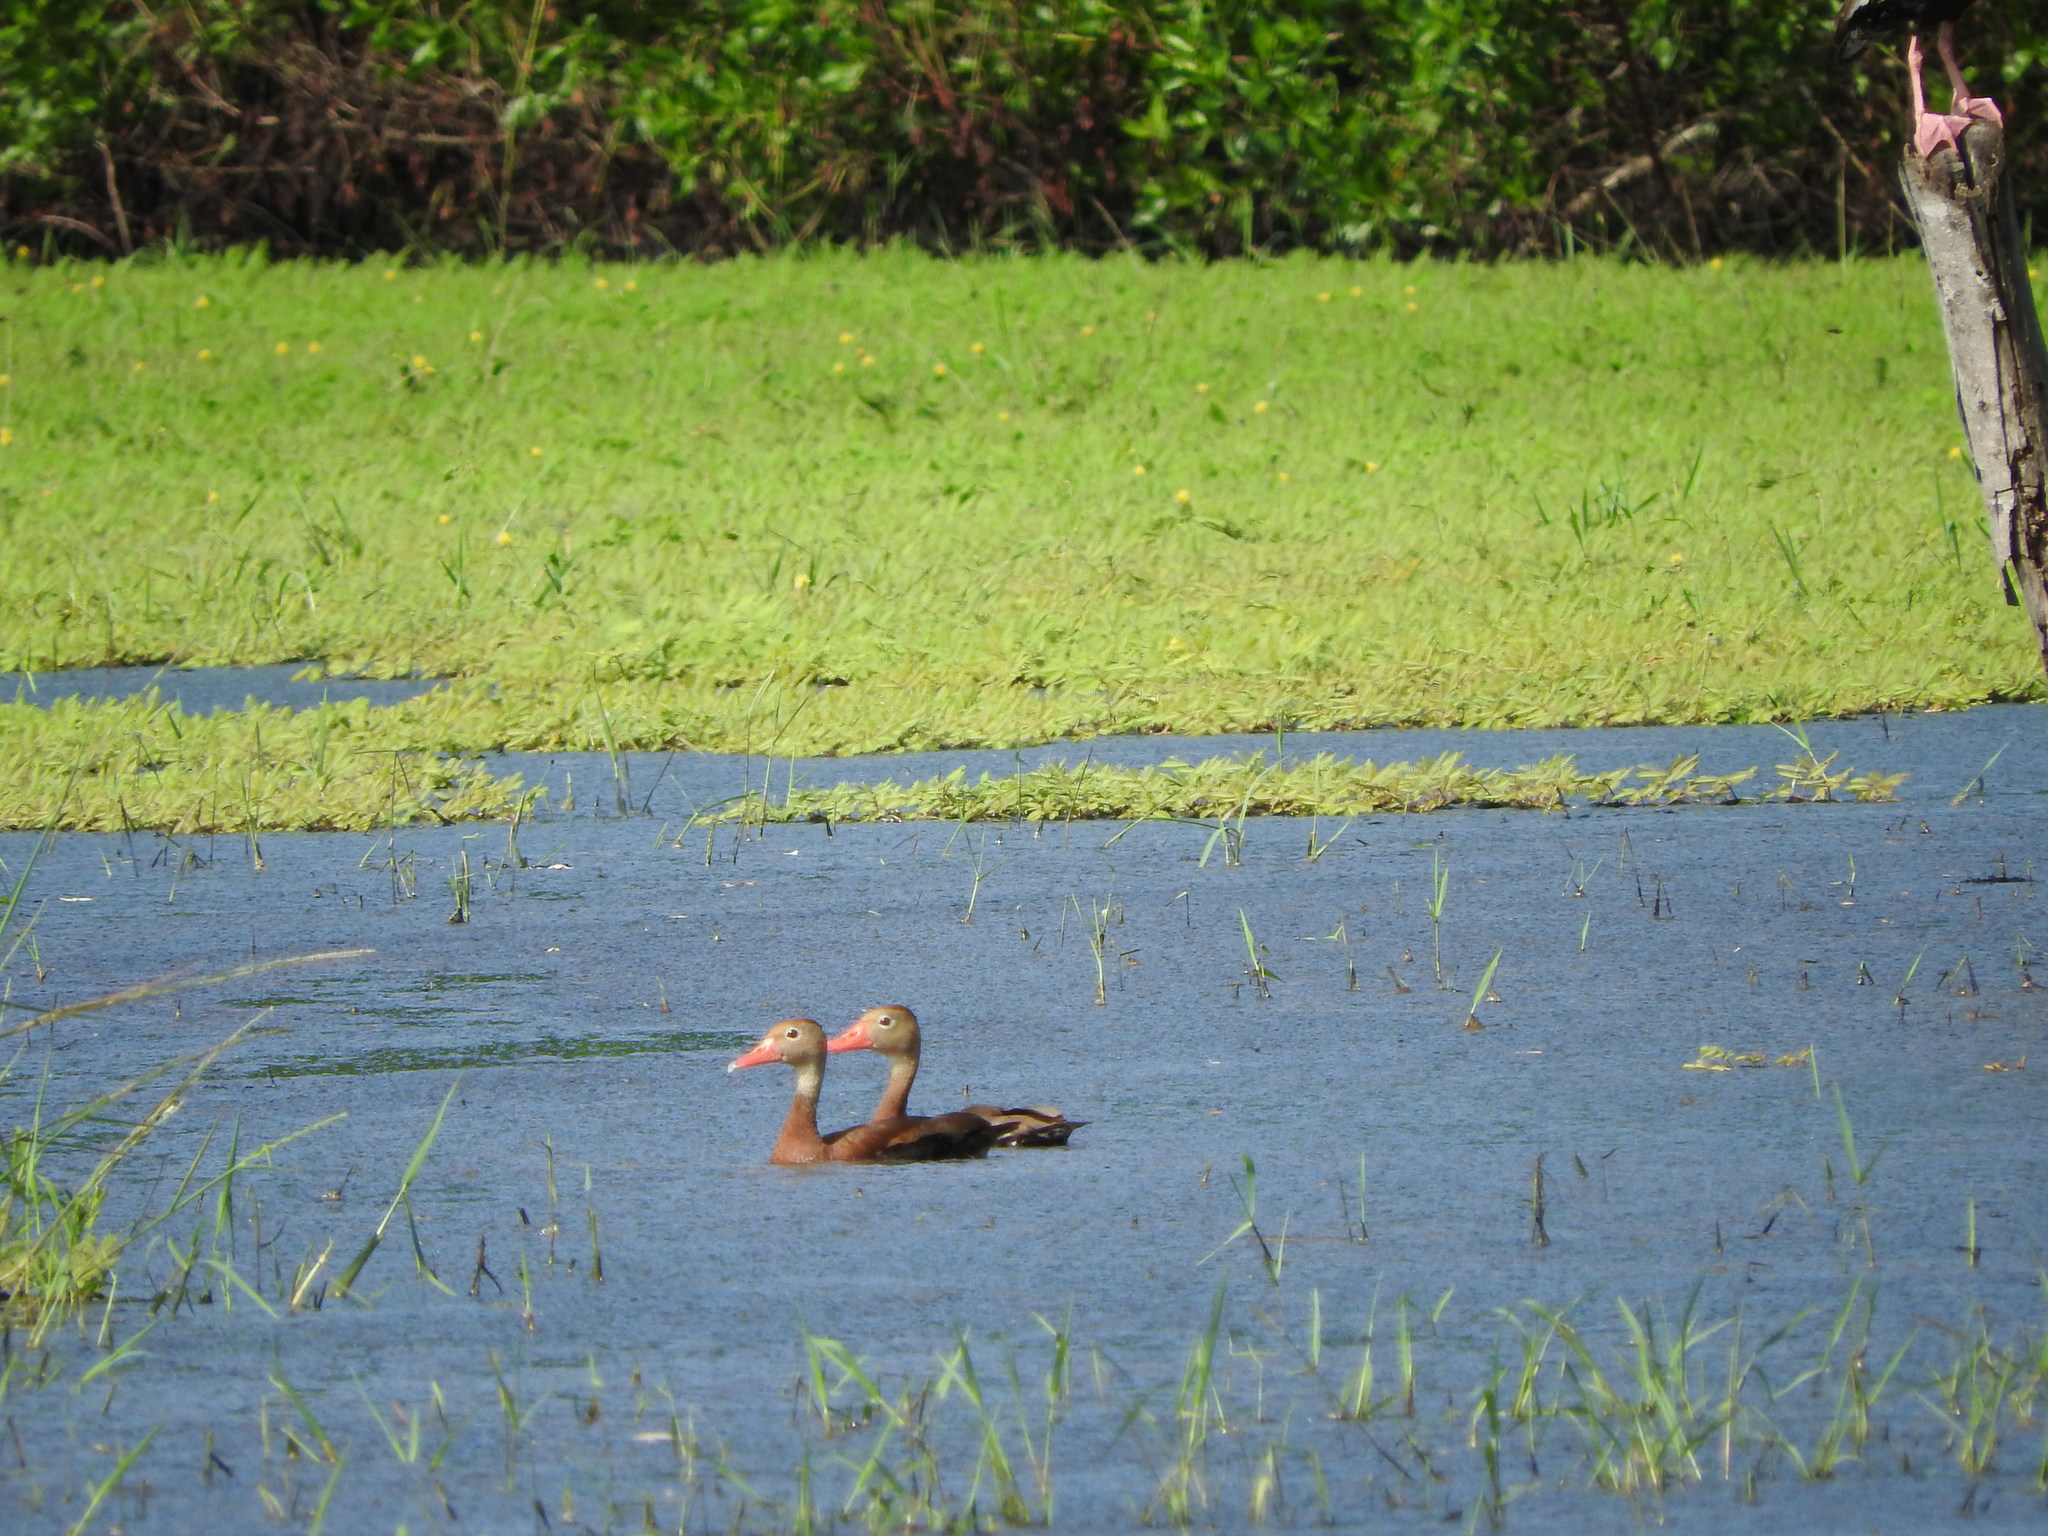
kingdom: Animalia
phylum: Chordata
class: Aves
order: Anseriformes
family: Anatidae
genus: Dendrocygna
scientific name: Dendrocygna autumnalis
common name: Black-bellied whistling duck
